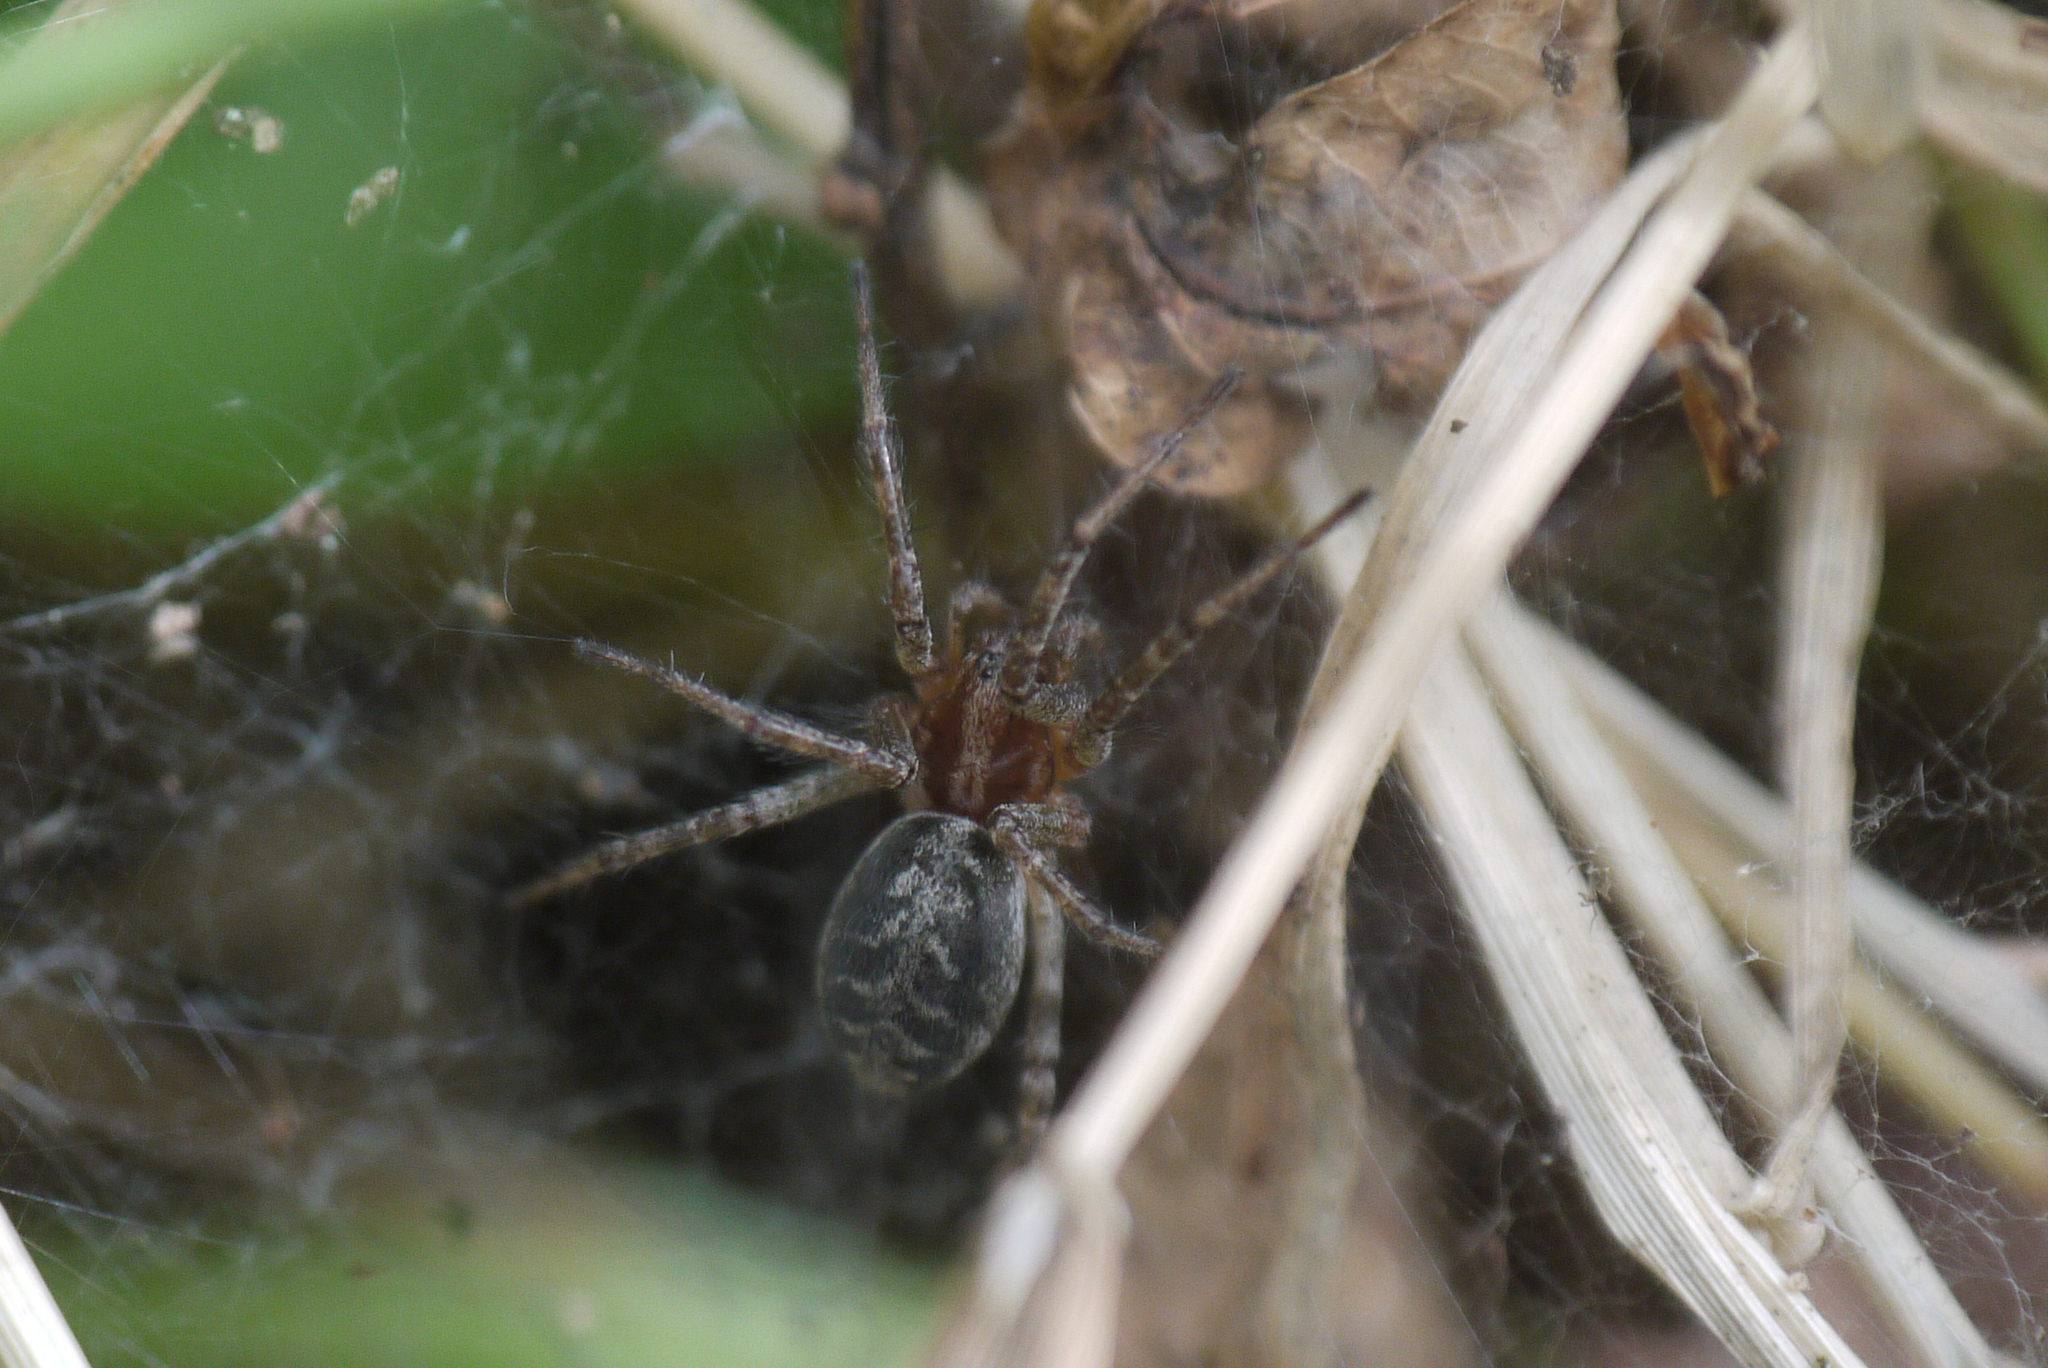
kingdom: Animalia
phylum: Arthropoda
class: Arachnida
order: Araneae
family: Agelenidae
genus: Agelena
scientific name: Agelena labyrinthica
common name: Labyrinth spider
